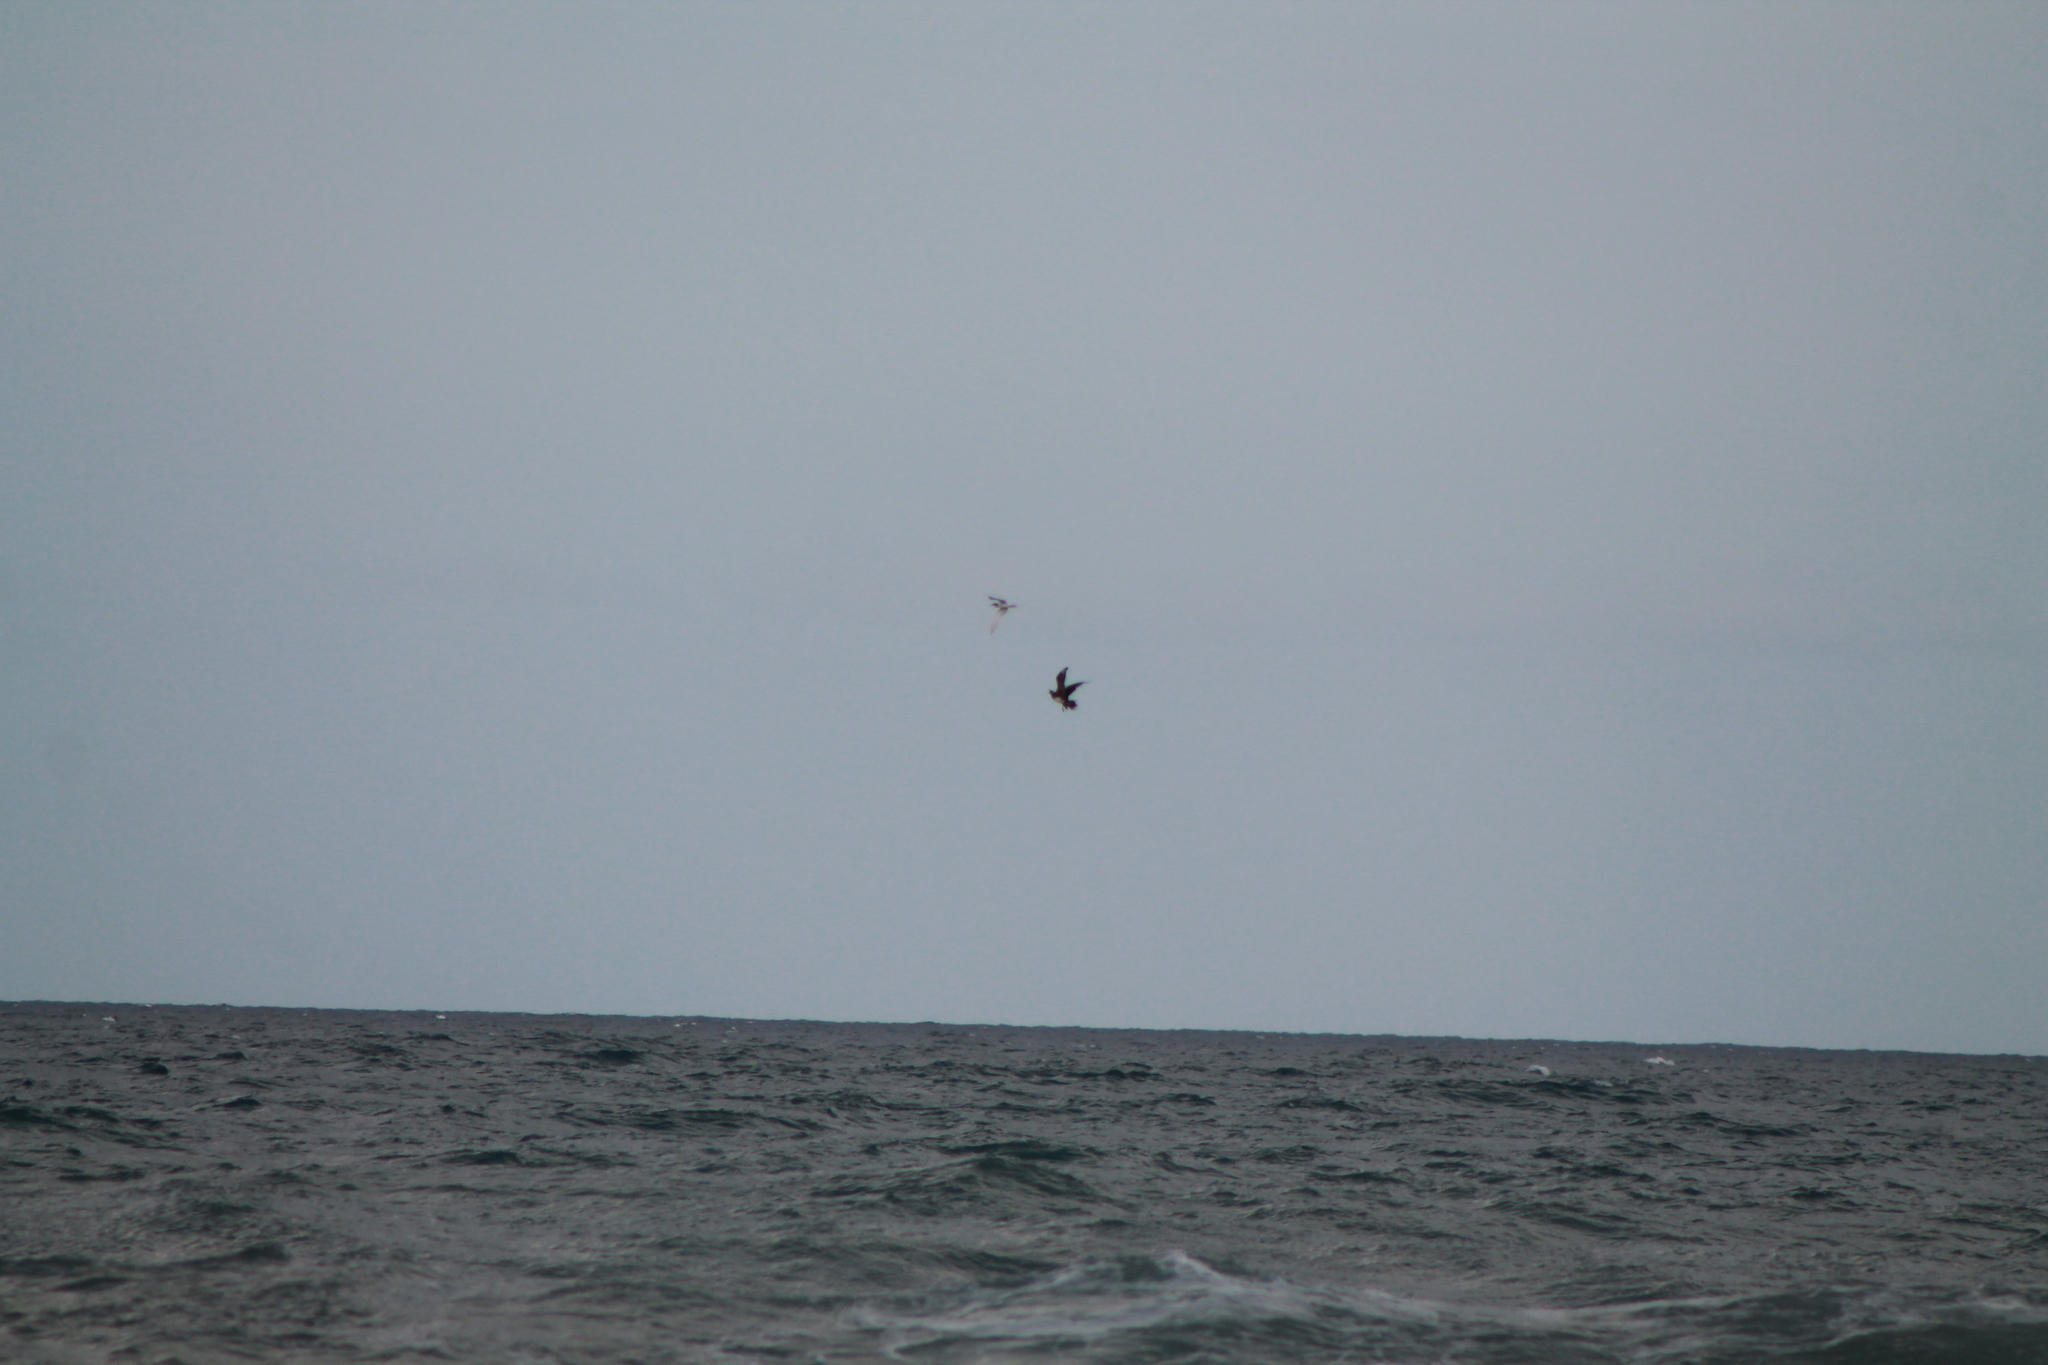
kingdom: Animalia
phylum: Chordata
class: Aves
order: Charadriiformes
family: Stercorariidae
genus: Stercorarius
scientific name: Stercorarius parasiticus
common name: Parasitic jaeger
